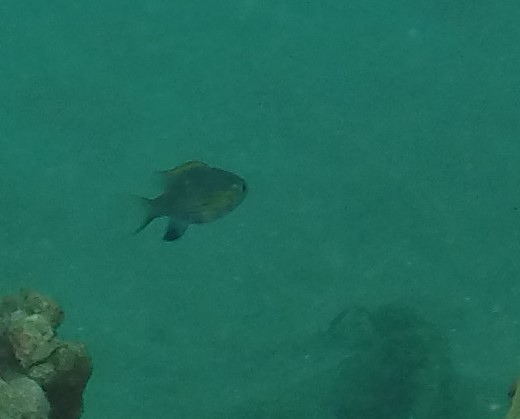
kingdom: Animalia
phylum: Chordata
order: Perciformes
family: Pomacentridae
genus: Chromis
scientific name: Chromis vanderbilti
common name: Vanderbilt's chromis
